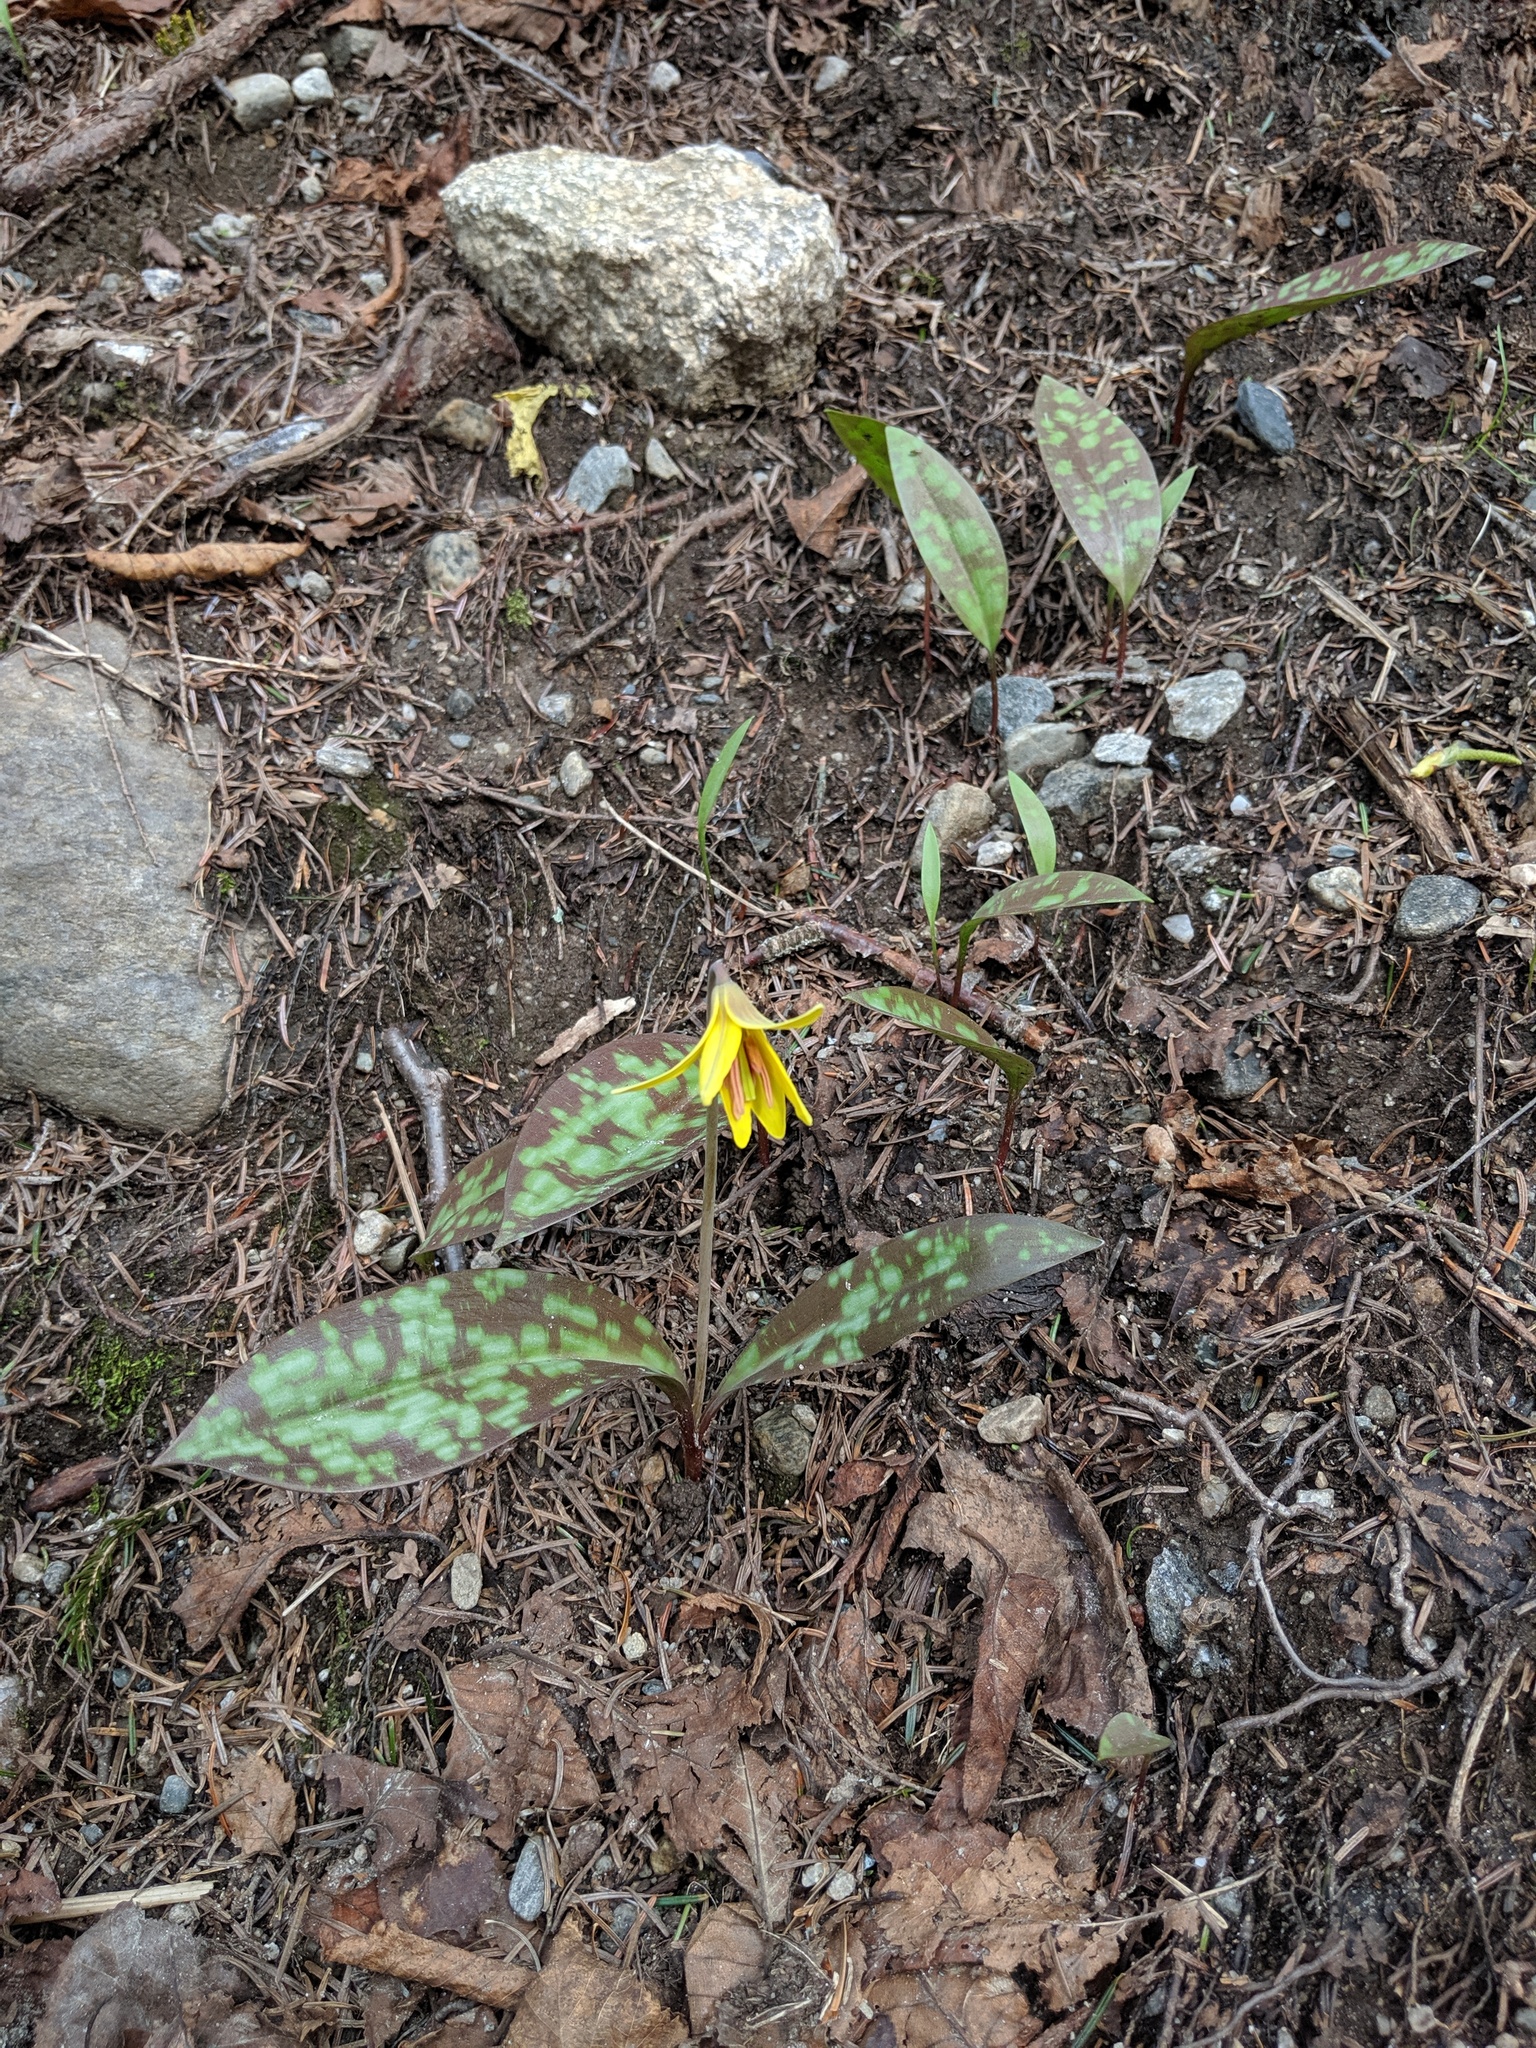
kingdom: Plantae
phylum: Tracheophyta
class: Liliopsida
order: Liliales
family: Liliaceae
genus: Erythronium
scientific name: Erythronium americanum
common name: Yellow adder's-tongue
